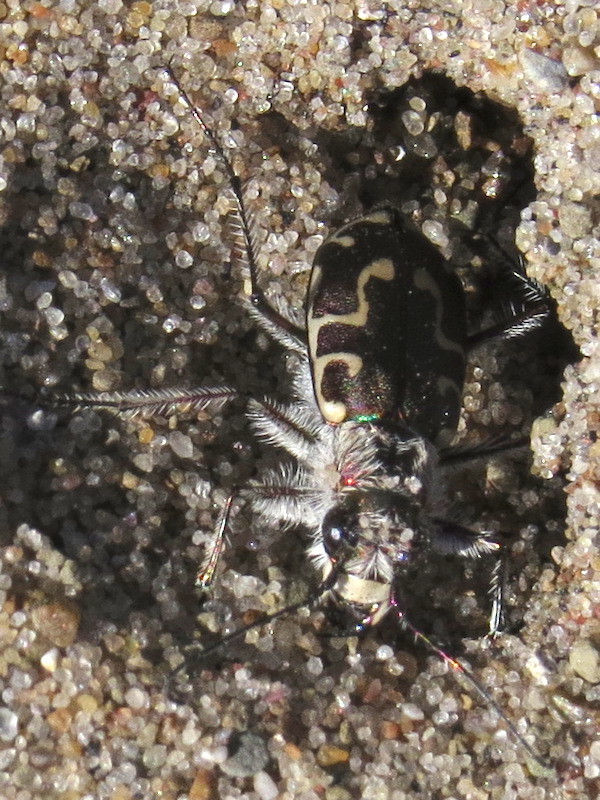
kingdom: Animalia
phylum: Arthropoda
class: Insecta
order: Coleoptera
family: Carabidae
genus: Cicindela
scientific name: Cicindela hirticollis
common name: Hairy-necked tiger beetle
